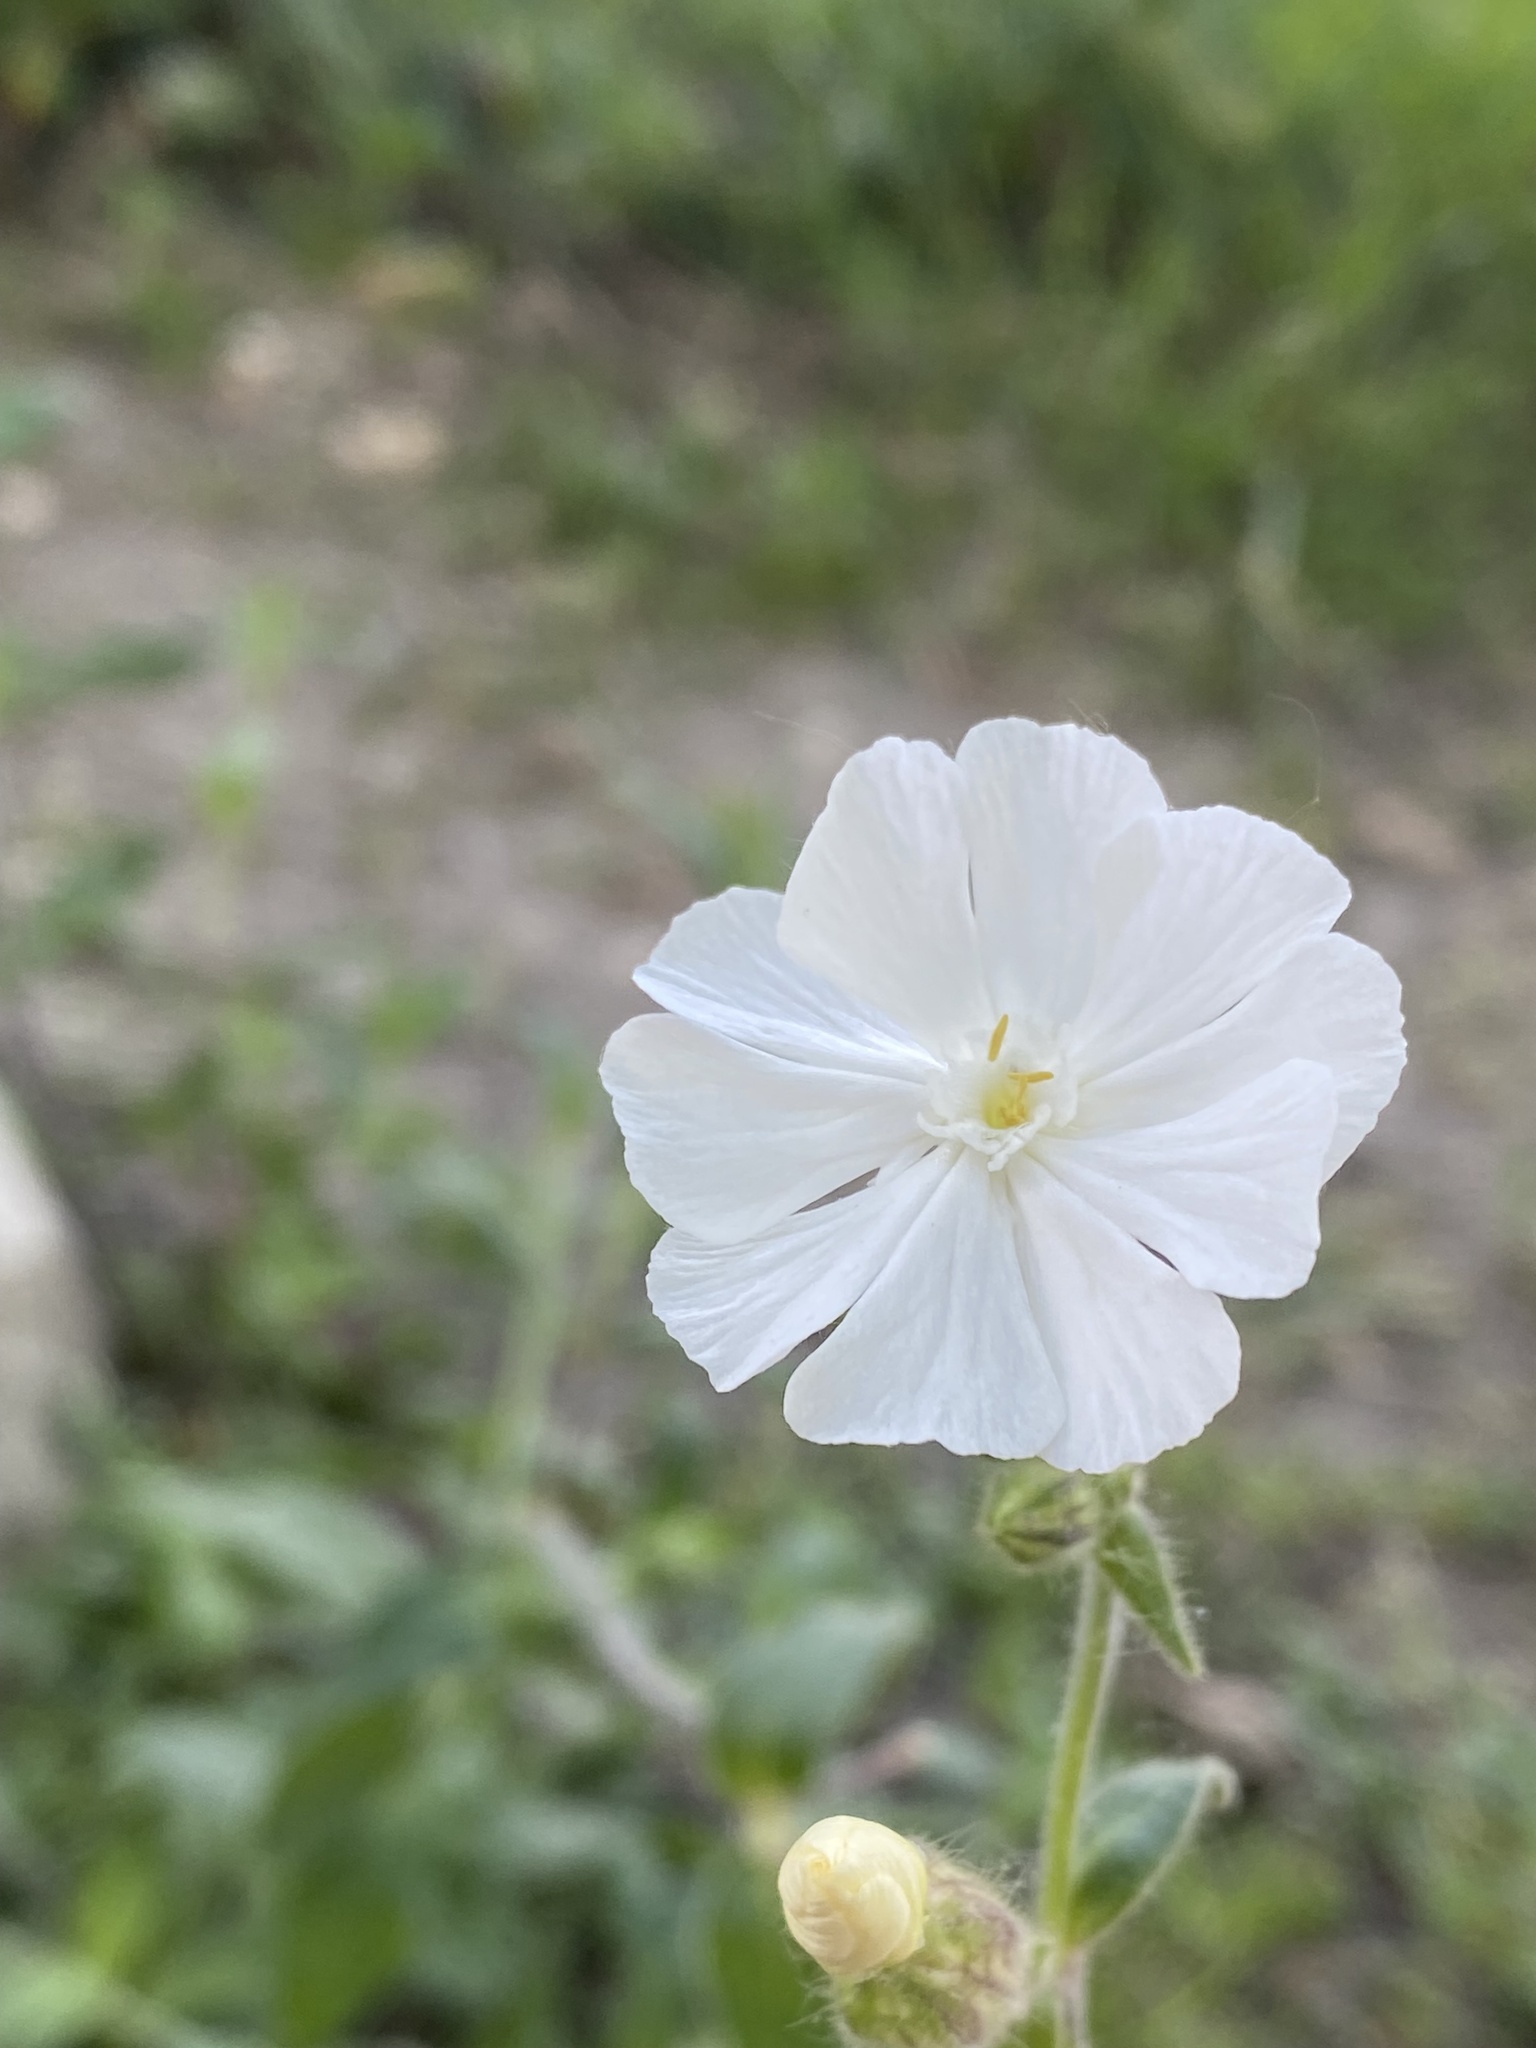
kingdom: Plantae
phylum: Tracheophyta
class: Magnoliopsida
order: Caryophyllales
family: Caryophyllaceae
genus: Silene
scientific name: Silene latifolia
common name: White campion
